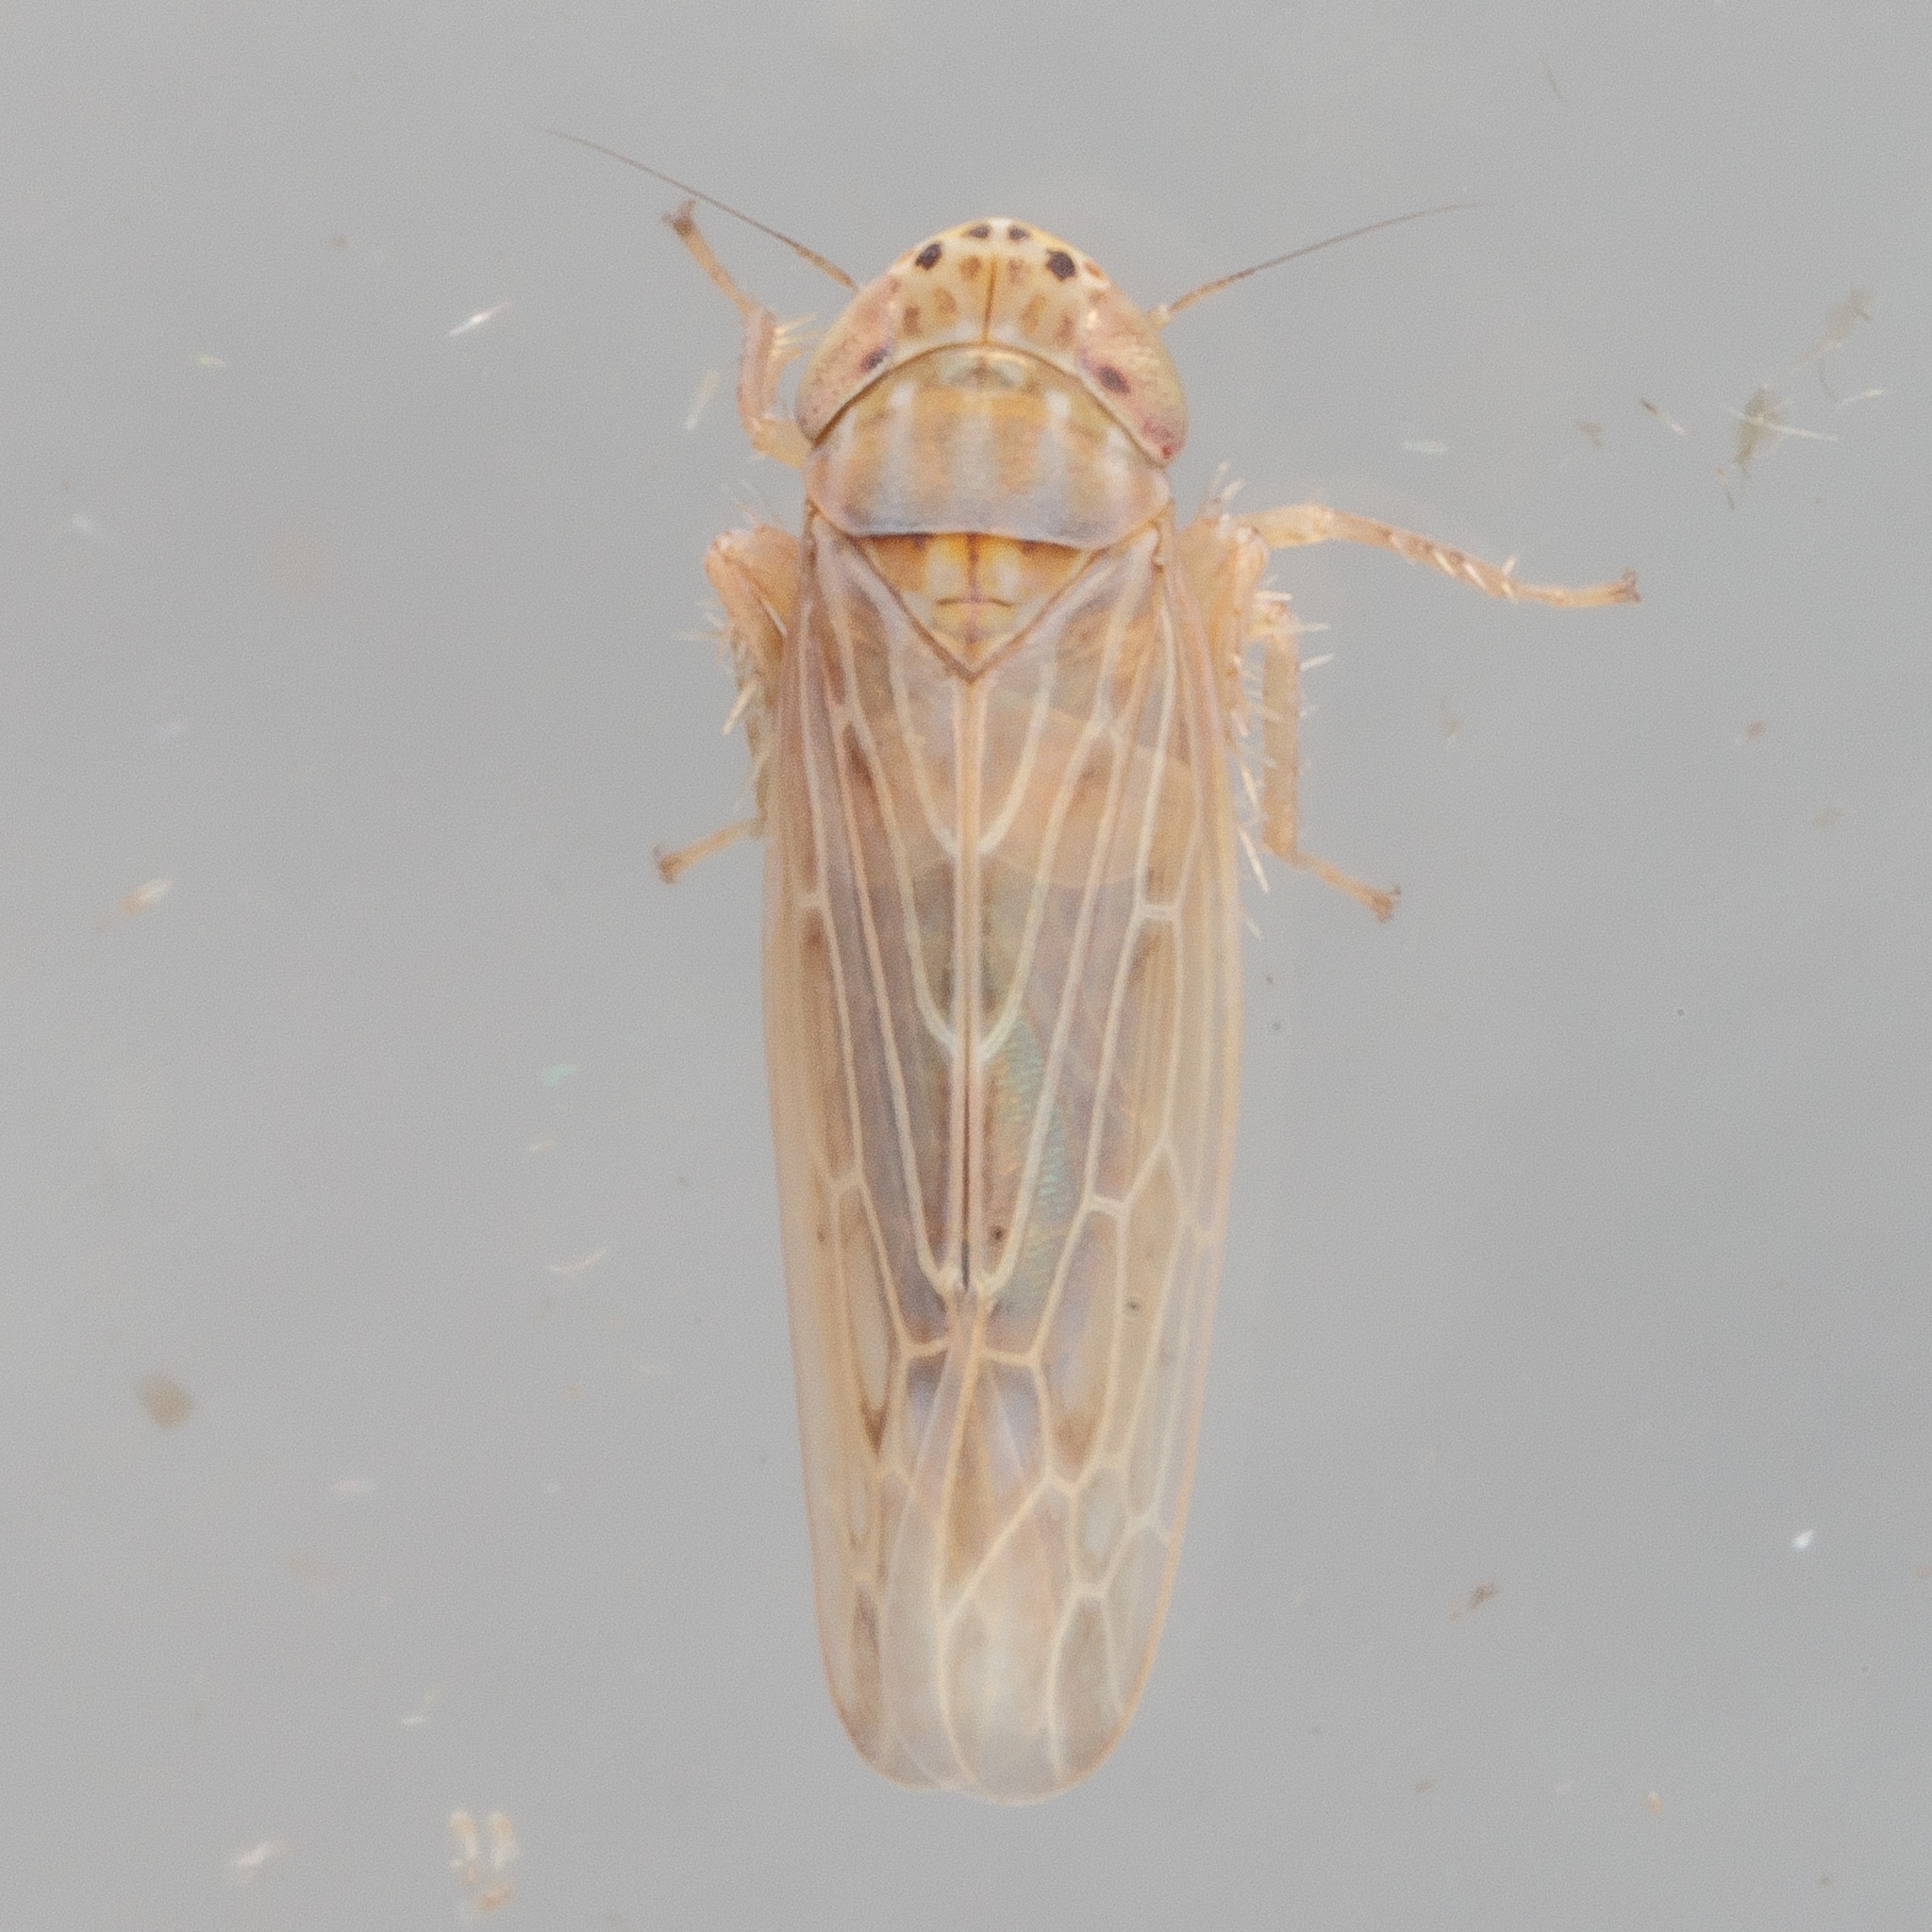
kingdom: Animalia
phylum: Arthropoda
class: Insecta
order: Hemiptera
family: Cicadellidae
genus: Graminella
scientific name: Graminella sonora
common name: Lesser lawn leafhopper
